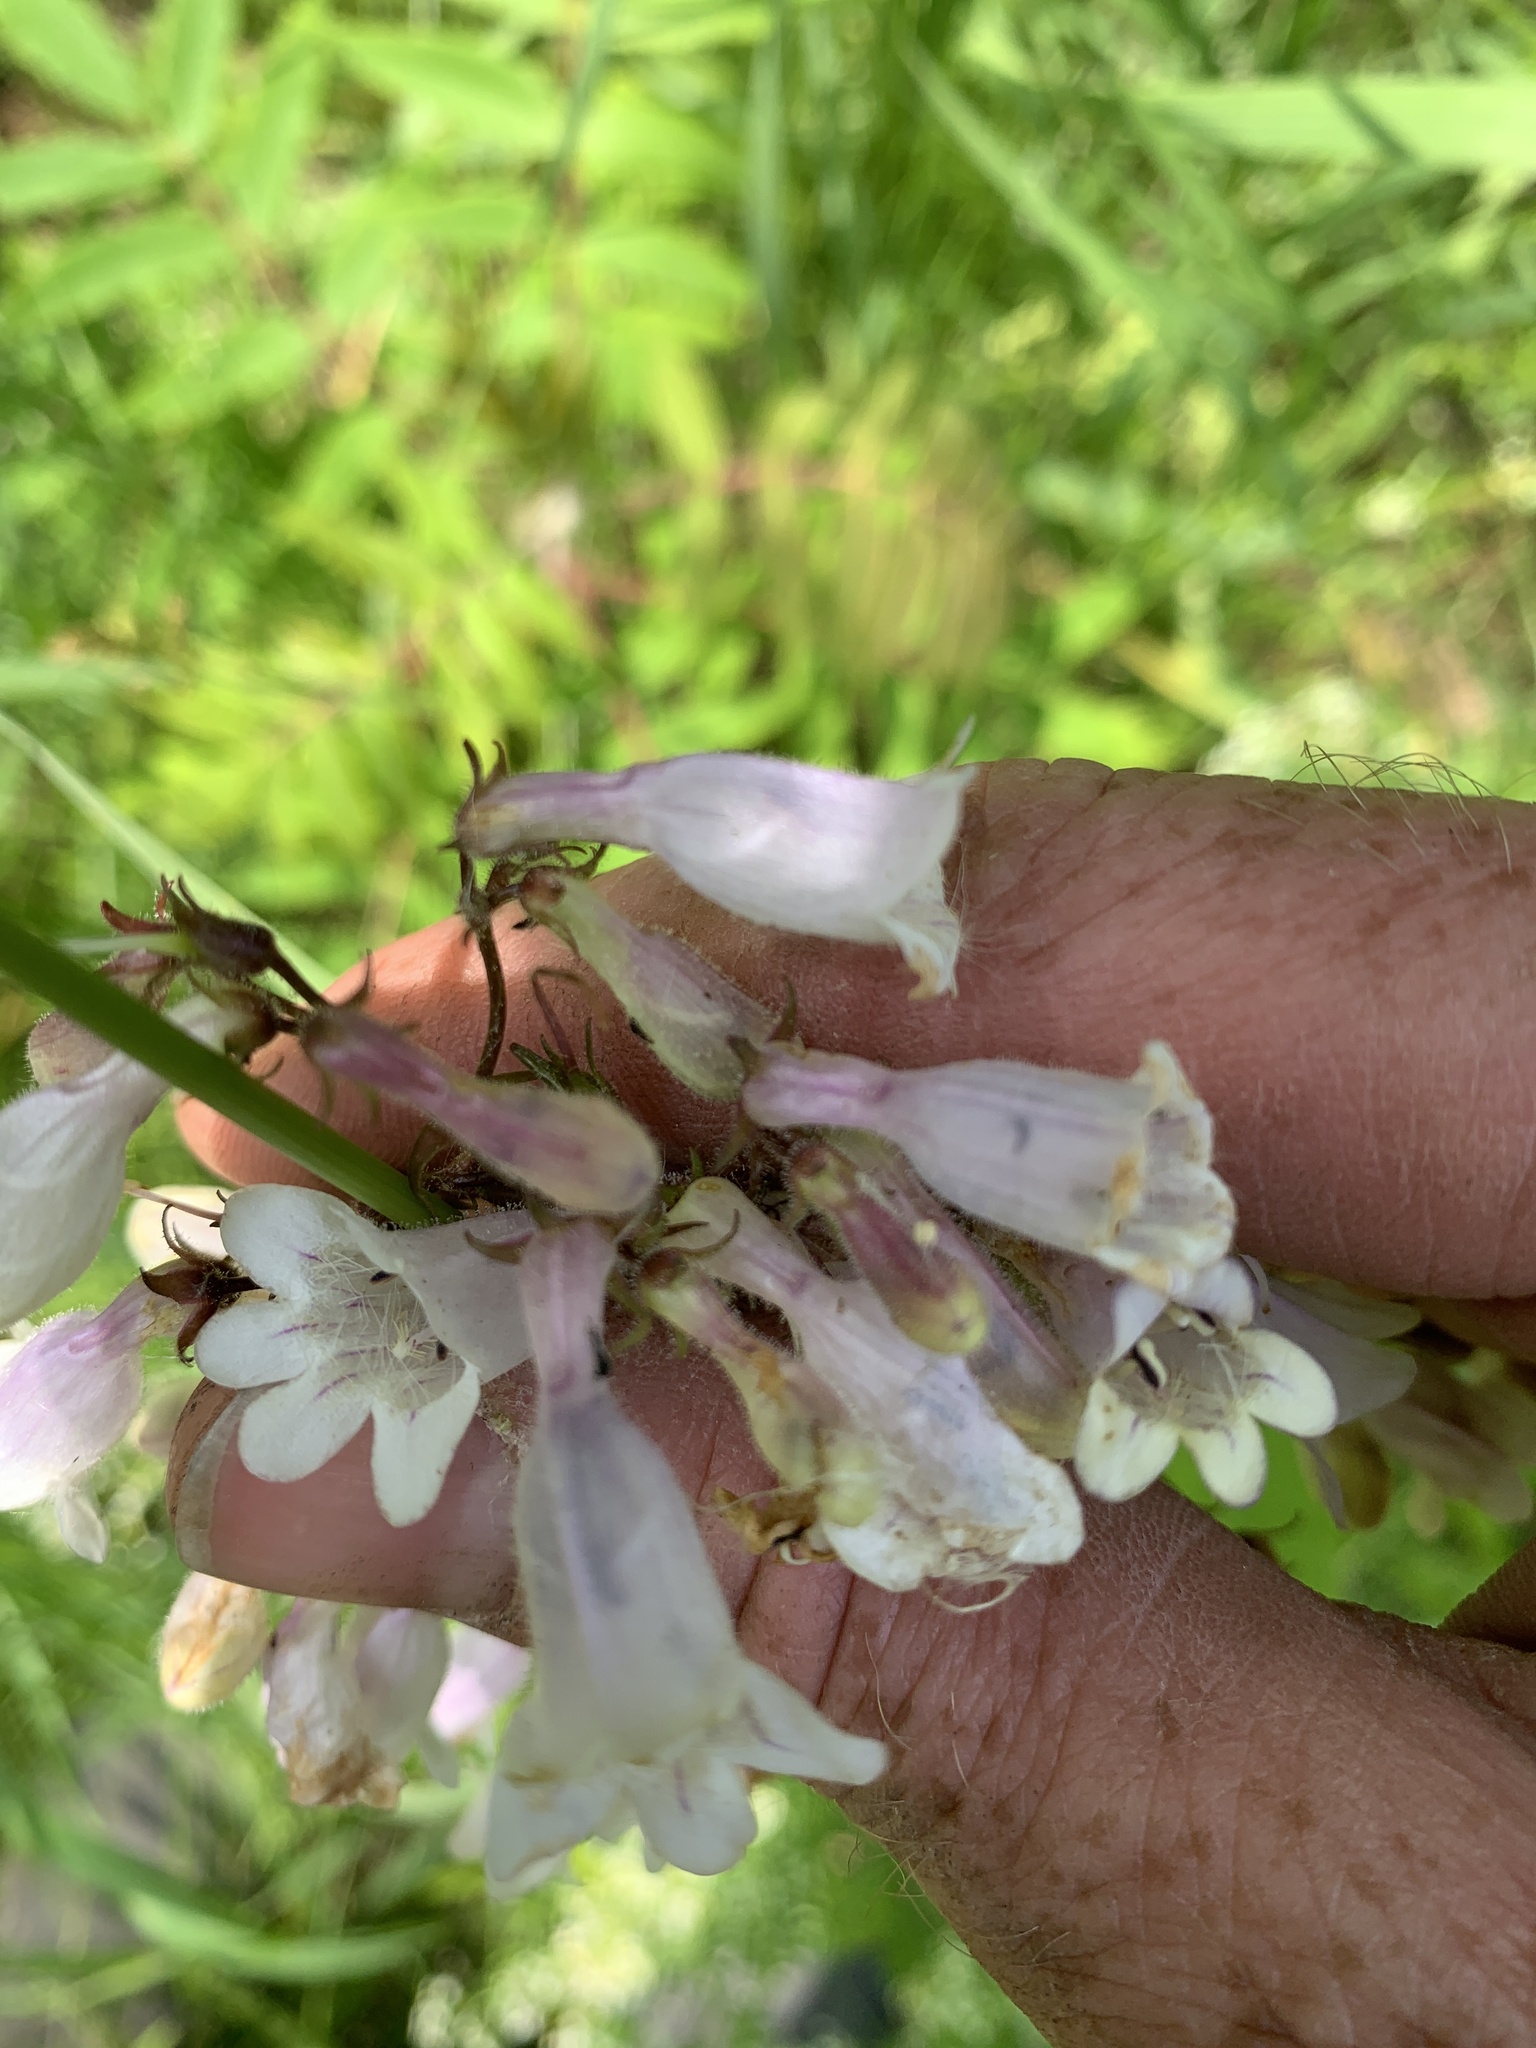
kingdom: Plantae
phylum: Tracheophyta
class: Magnoliopsida
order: Lamiales
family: Plantaginaceae
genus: Penstemon
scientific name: Penstemon digitalis
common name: Foxglove beardtongue
